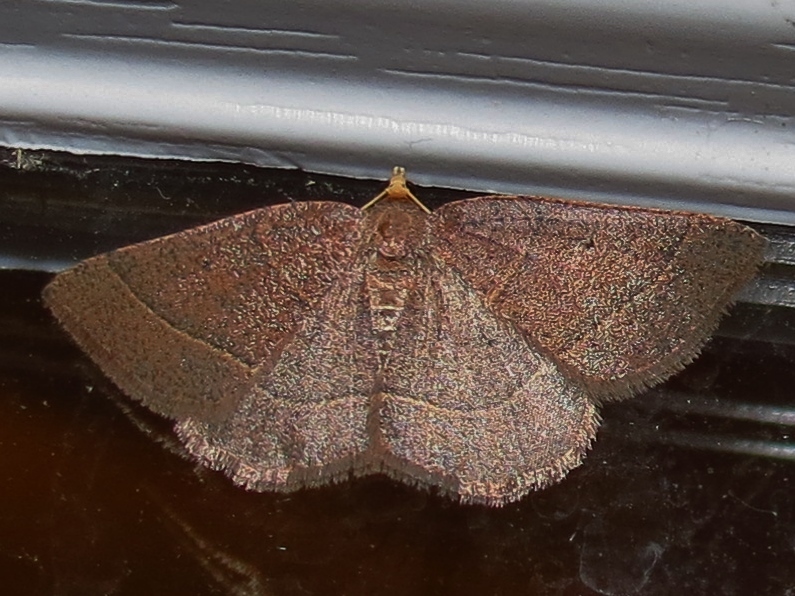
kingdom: Animalia
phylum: Arthropoda
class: Insecta
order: Lepidoptera
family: Geometridae
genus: Episemasia
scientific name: Episemasia cervinaria
